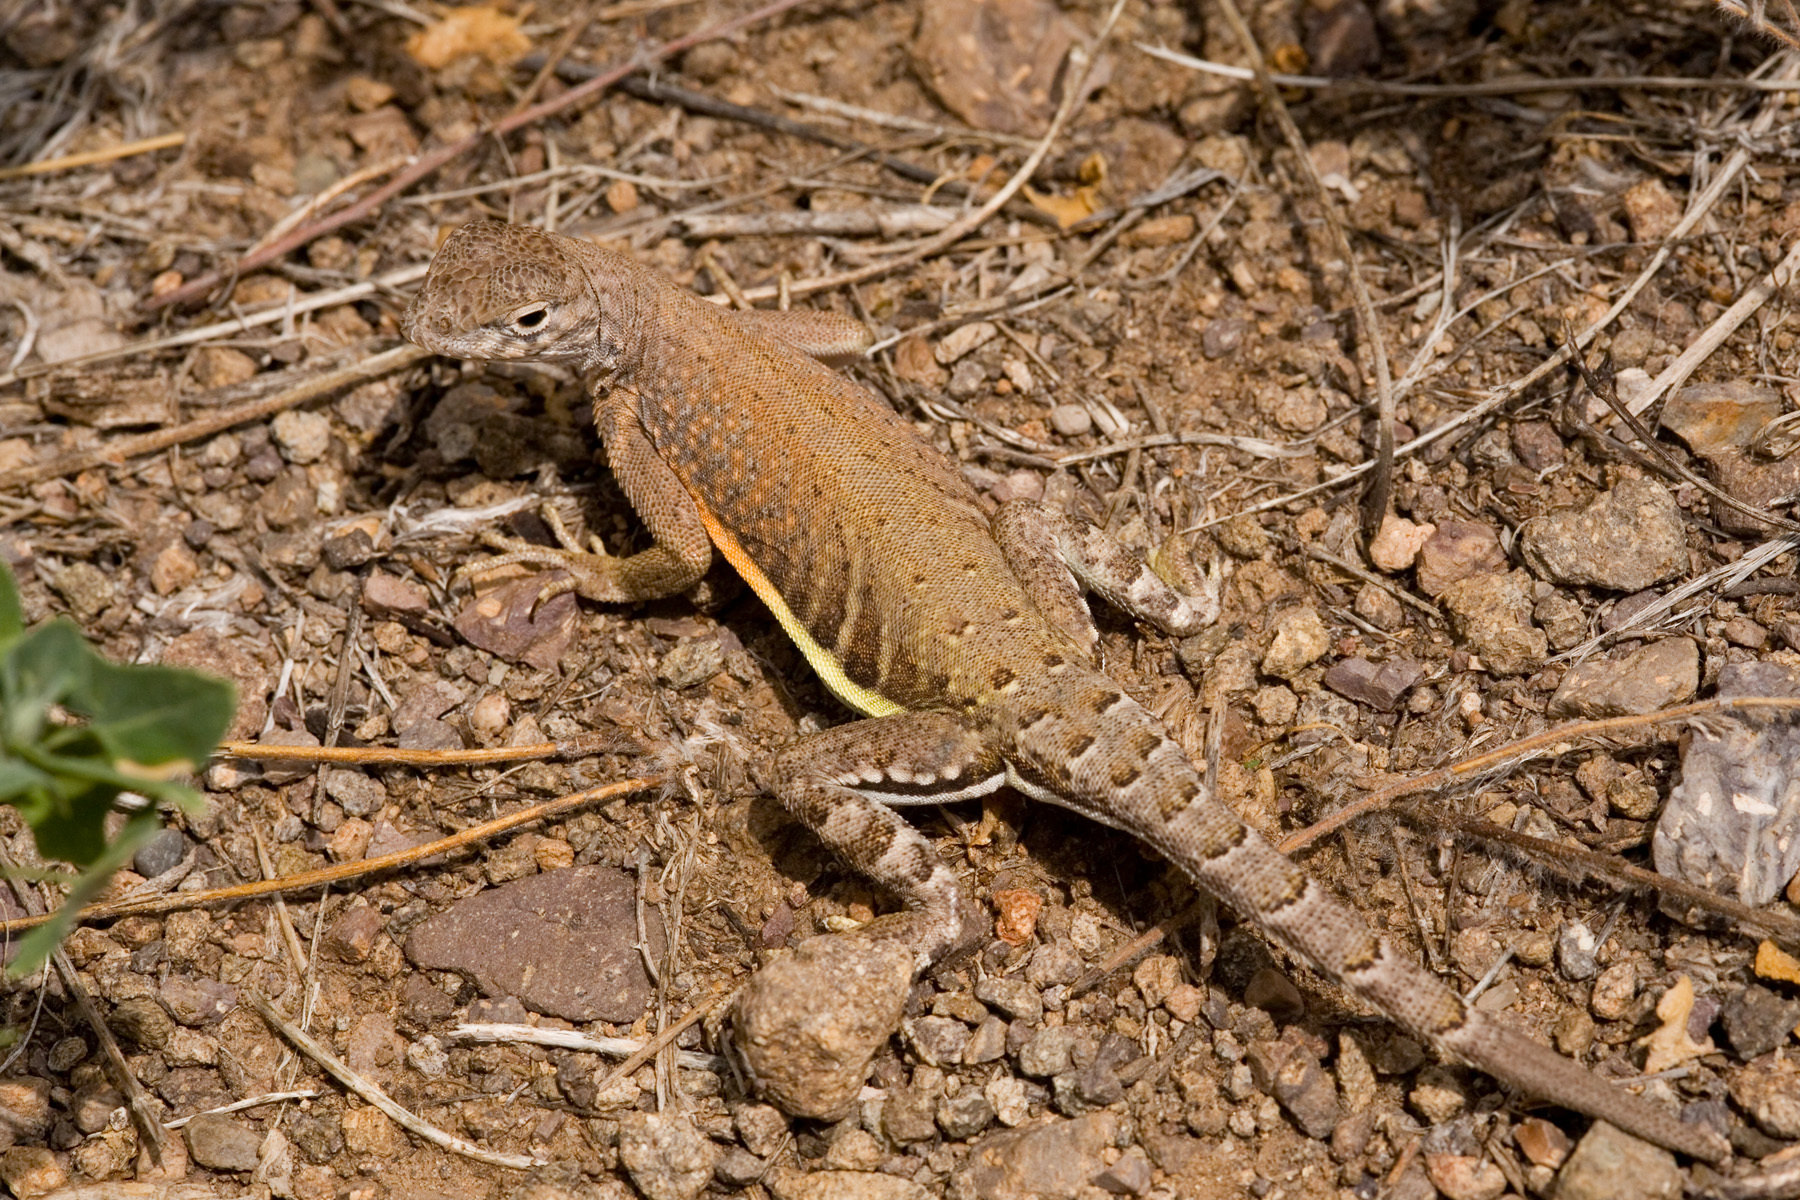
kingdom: Animalia
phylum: Chordata
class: Squamata
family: Phrynosomatidae
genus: Cophosaurus
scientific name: Cophosaurus texanus
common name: Greater earless lizard
